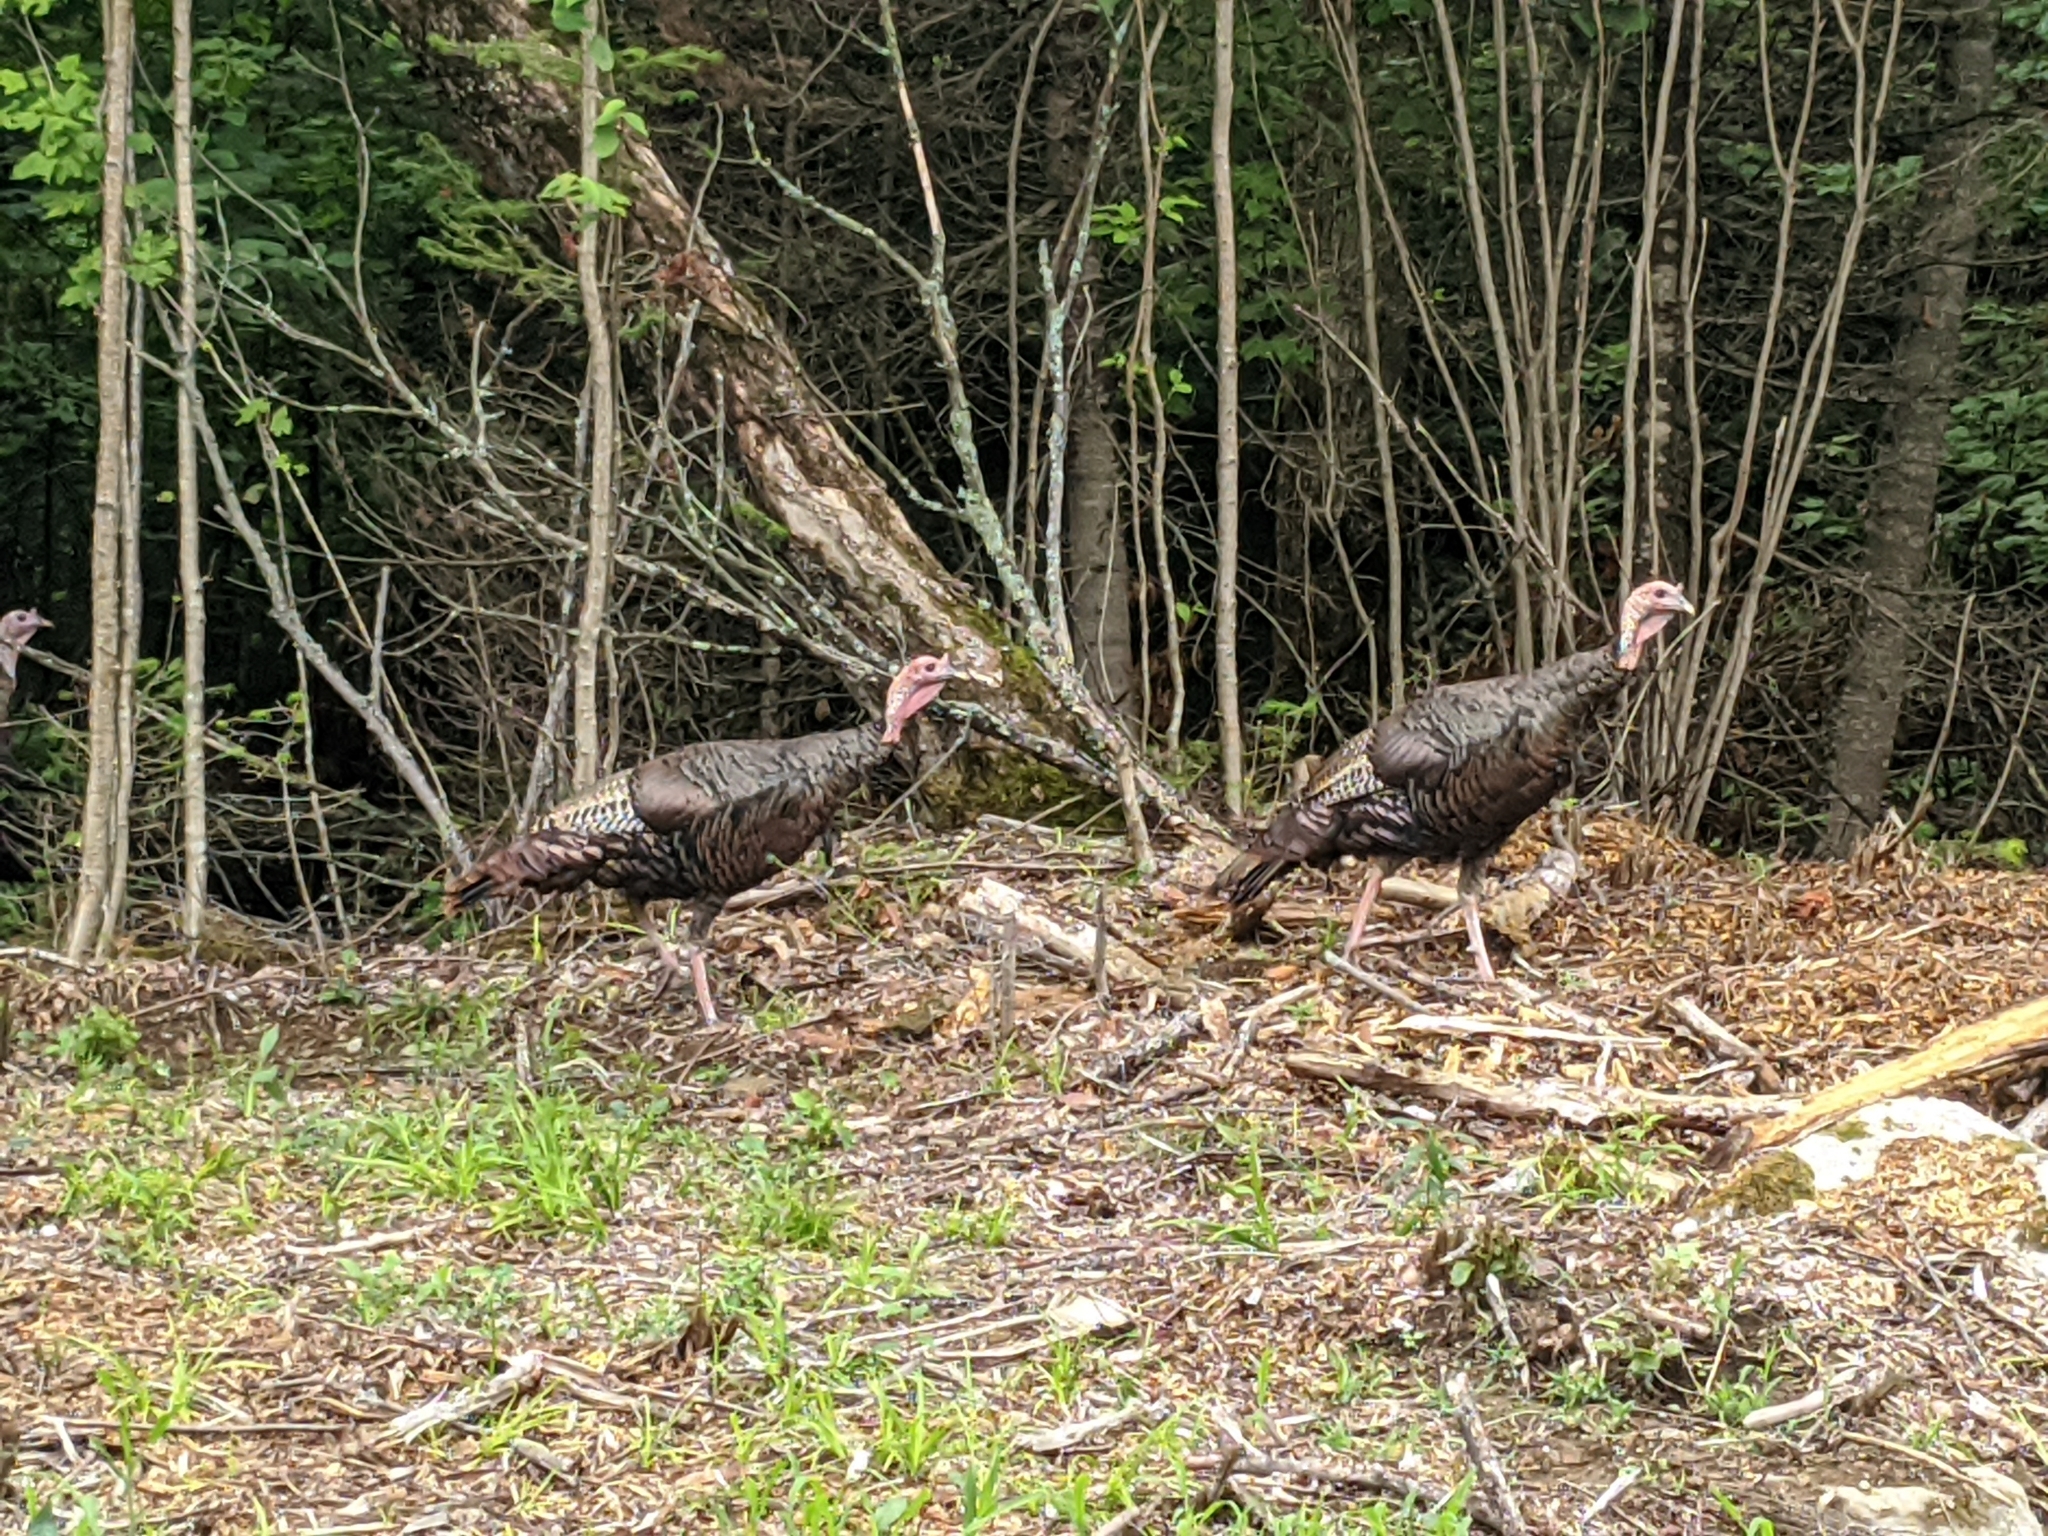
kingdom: Animalia
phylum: Chordata
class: Aves
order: Galliformes
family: Phasianidae
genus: Meleagris
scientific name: Meleagris gallopavo
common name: Wild turkey
